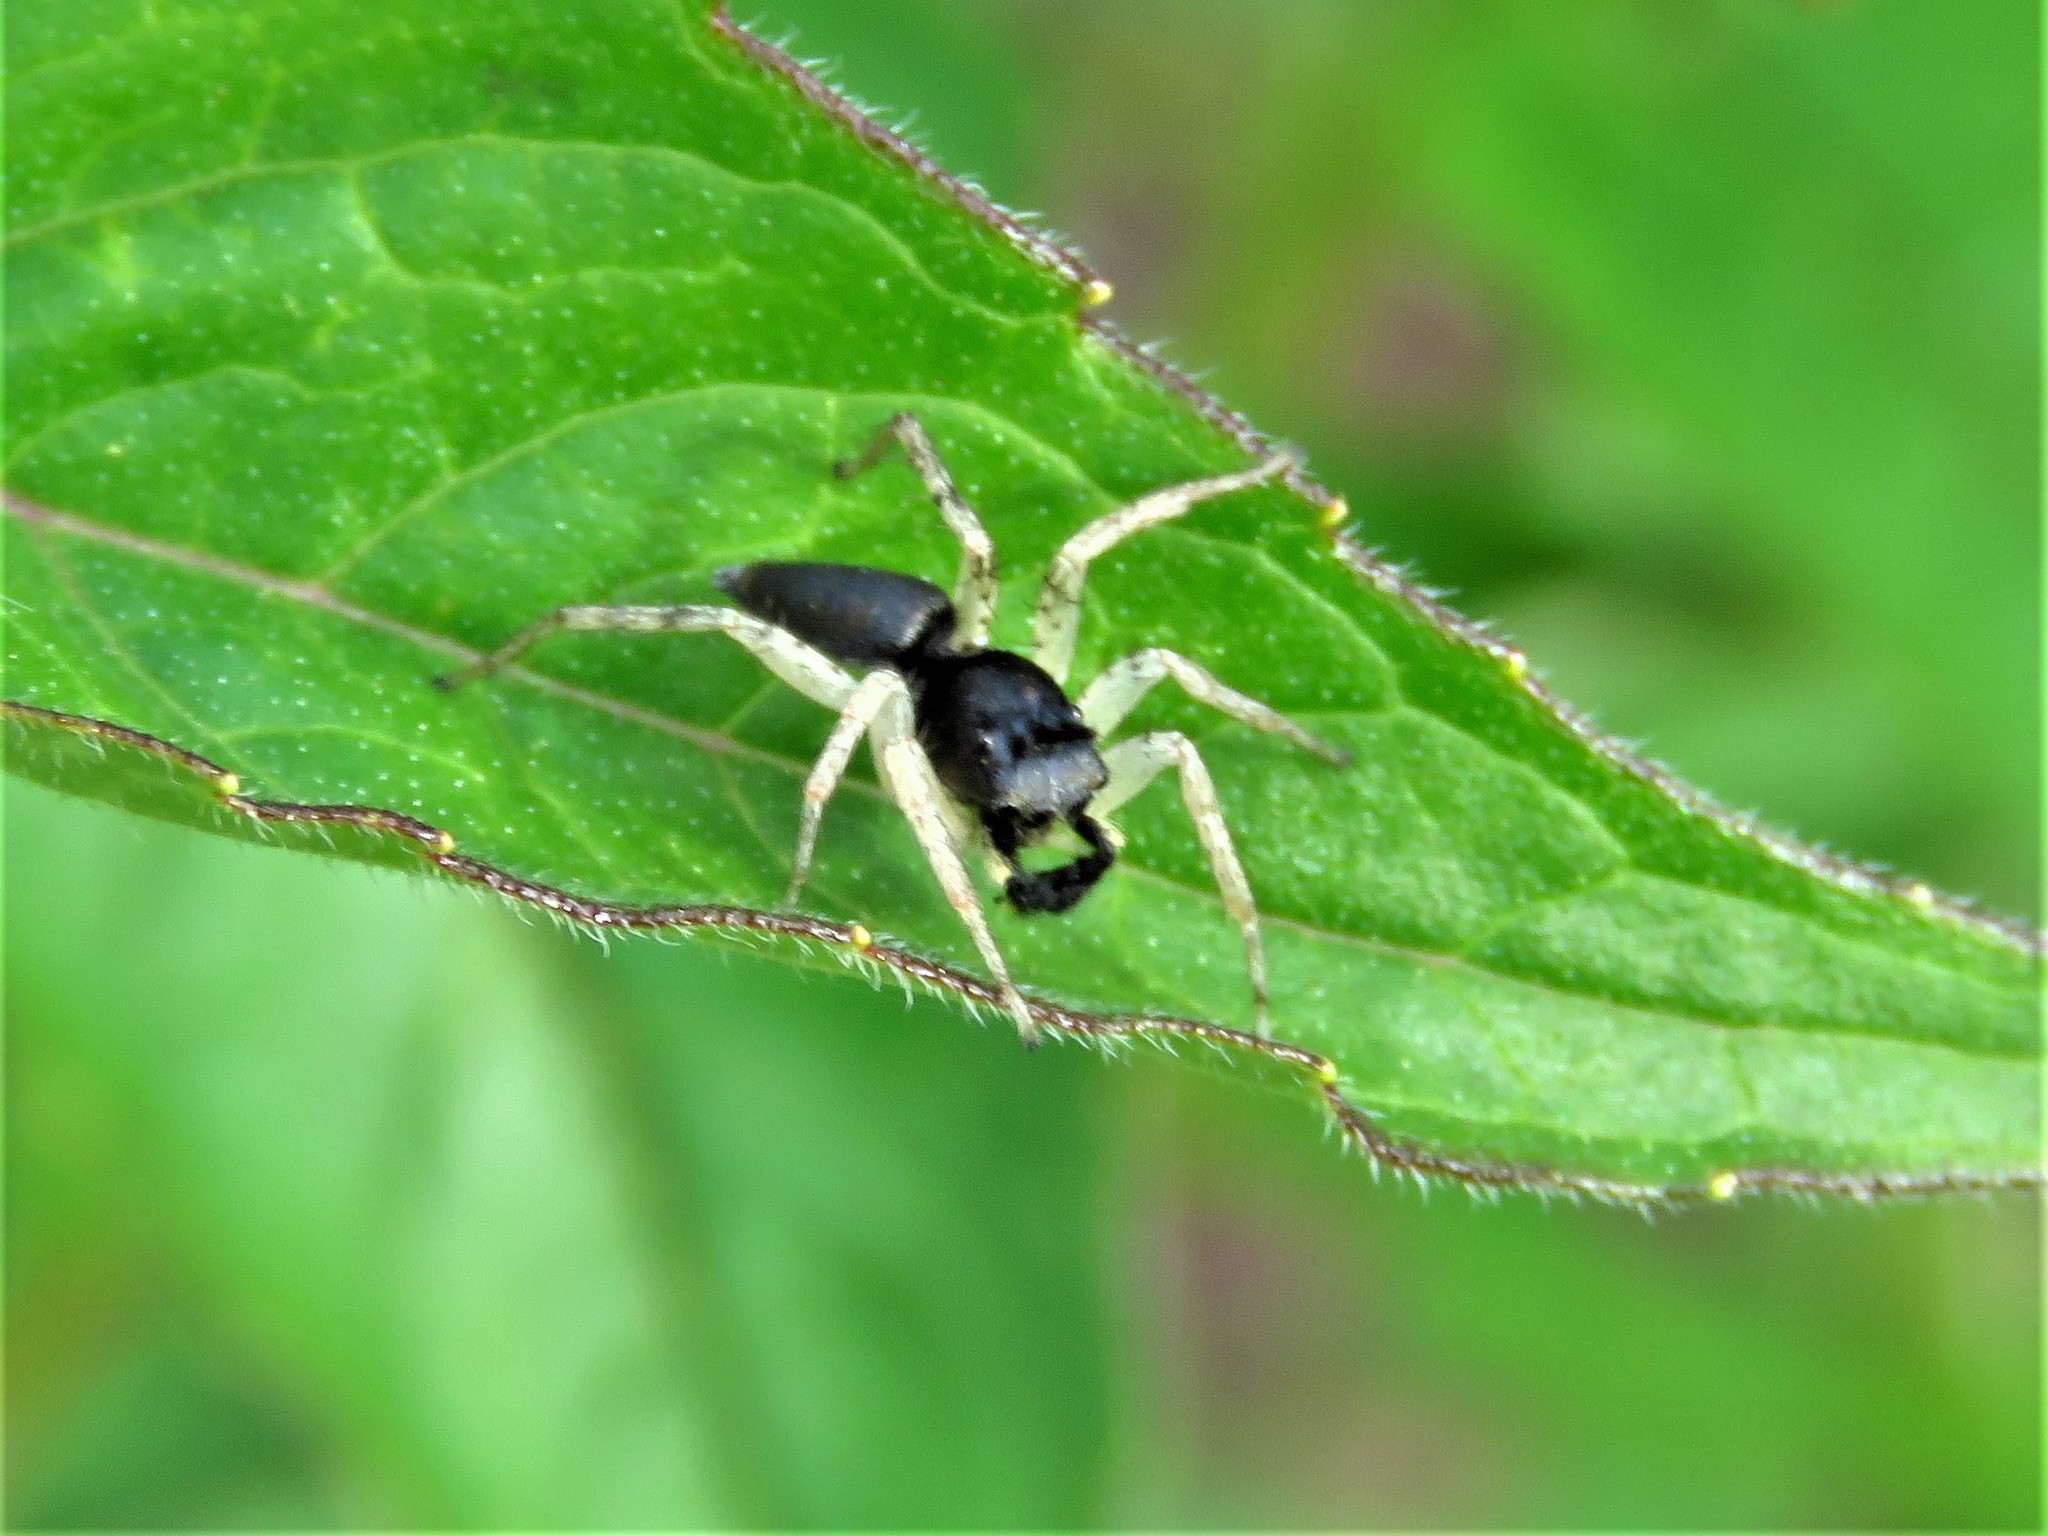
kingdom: Animalia
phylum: Arthropoda
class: Arachnida
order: Araneae
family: Salticidae
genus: Maevia
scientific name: Maevia inclemens
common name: Dimorphic jumper
